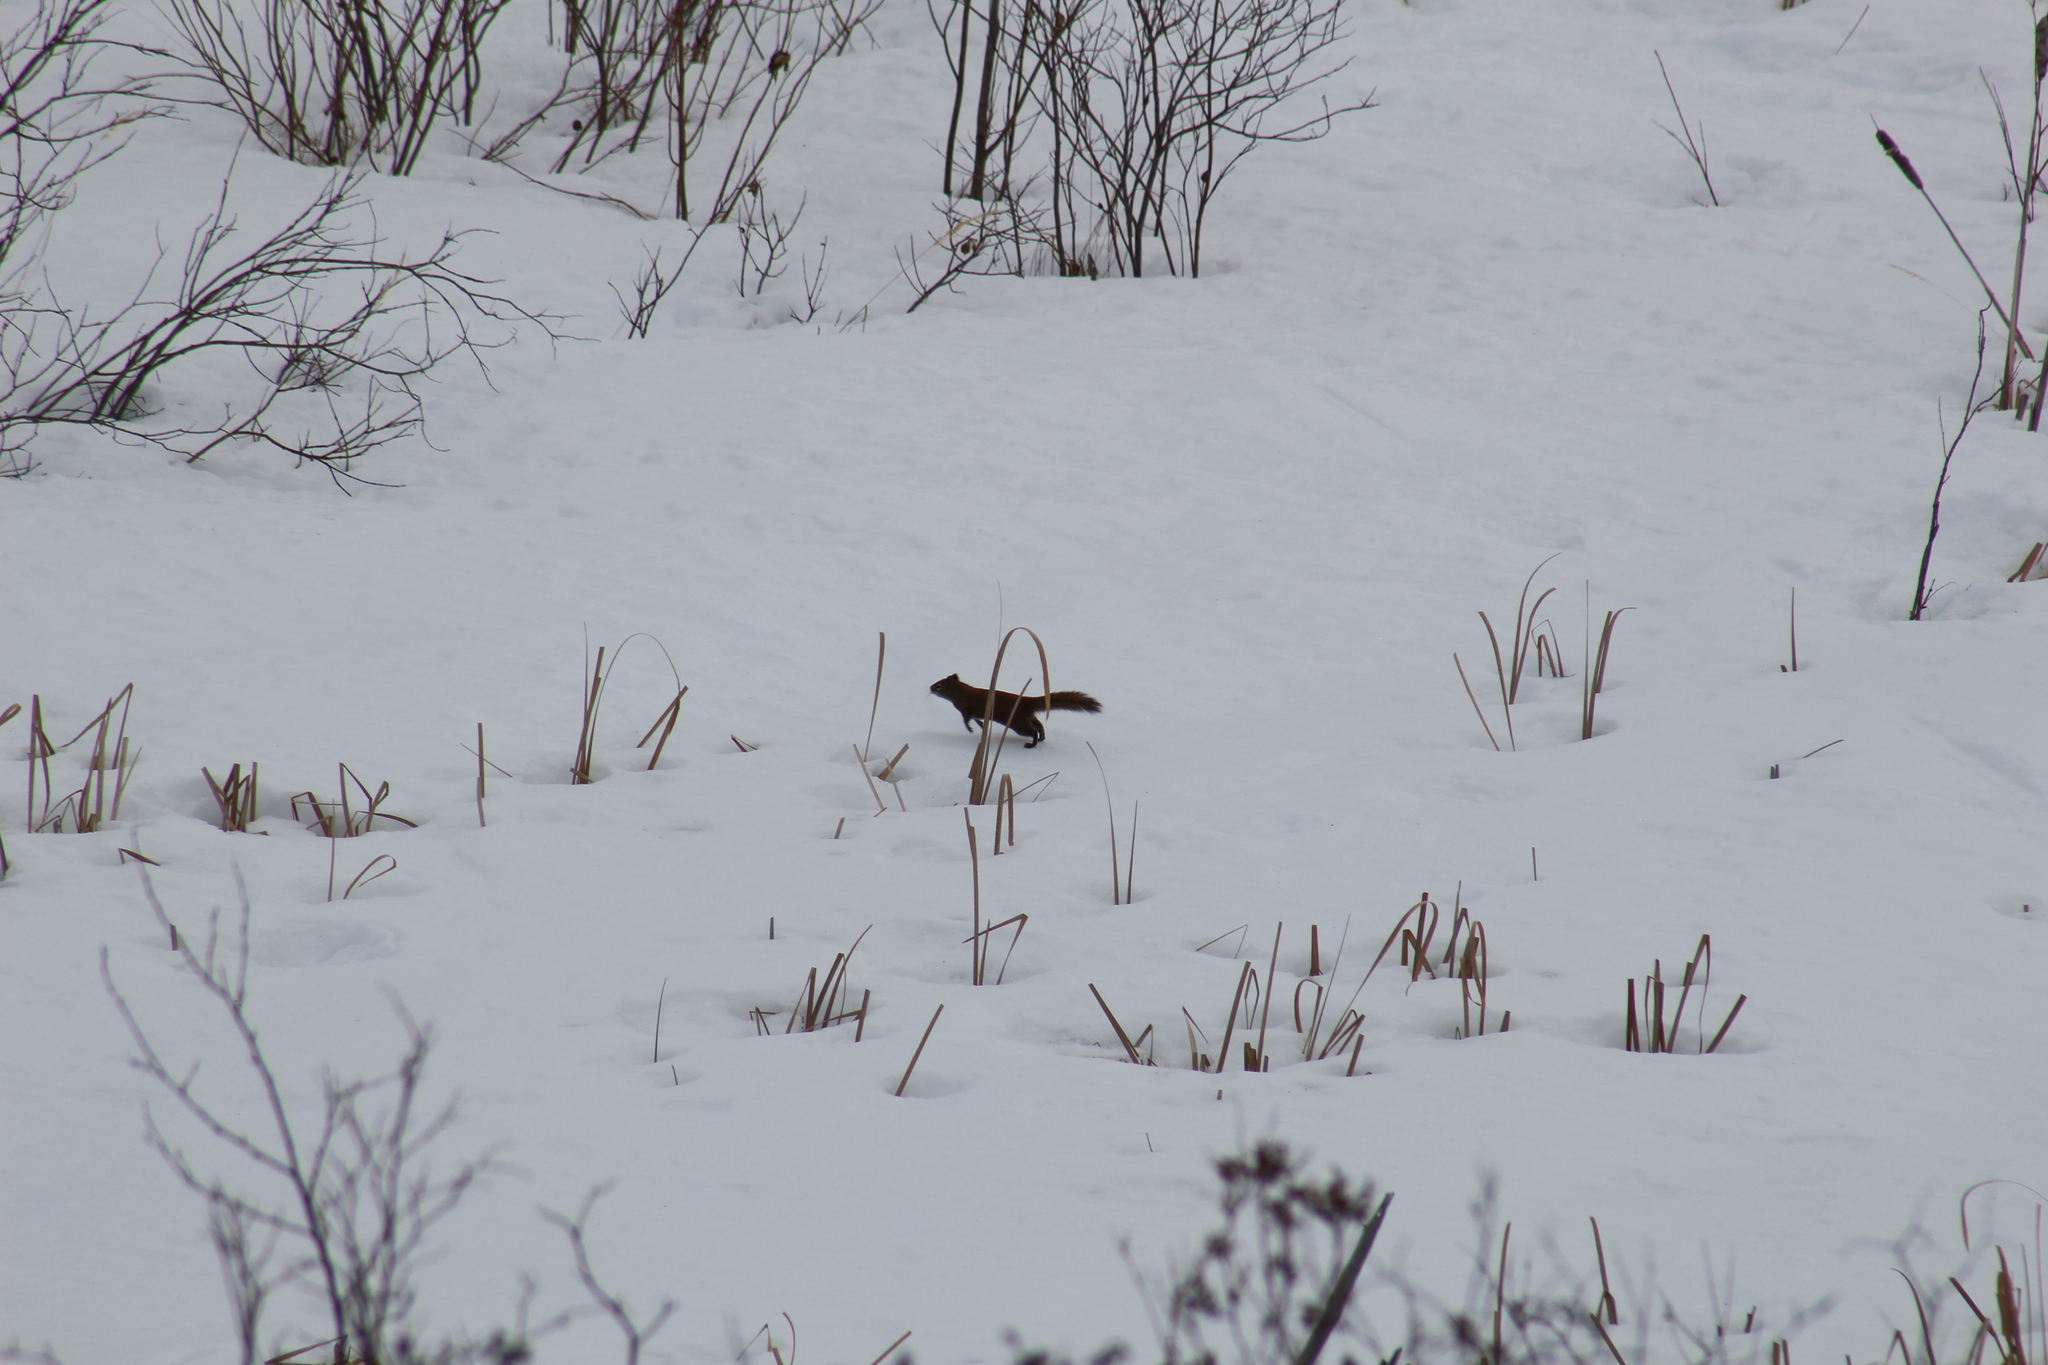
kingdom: Animalia
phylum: Chordata
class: Mammalia
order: Rodentia
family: Sciuridae
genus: Tamiasciurus
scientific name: Tamiasciurus hudsonicus
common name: Red squirrel
